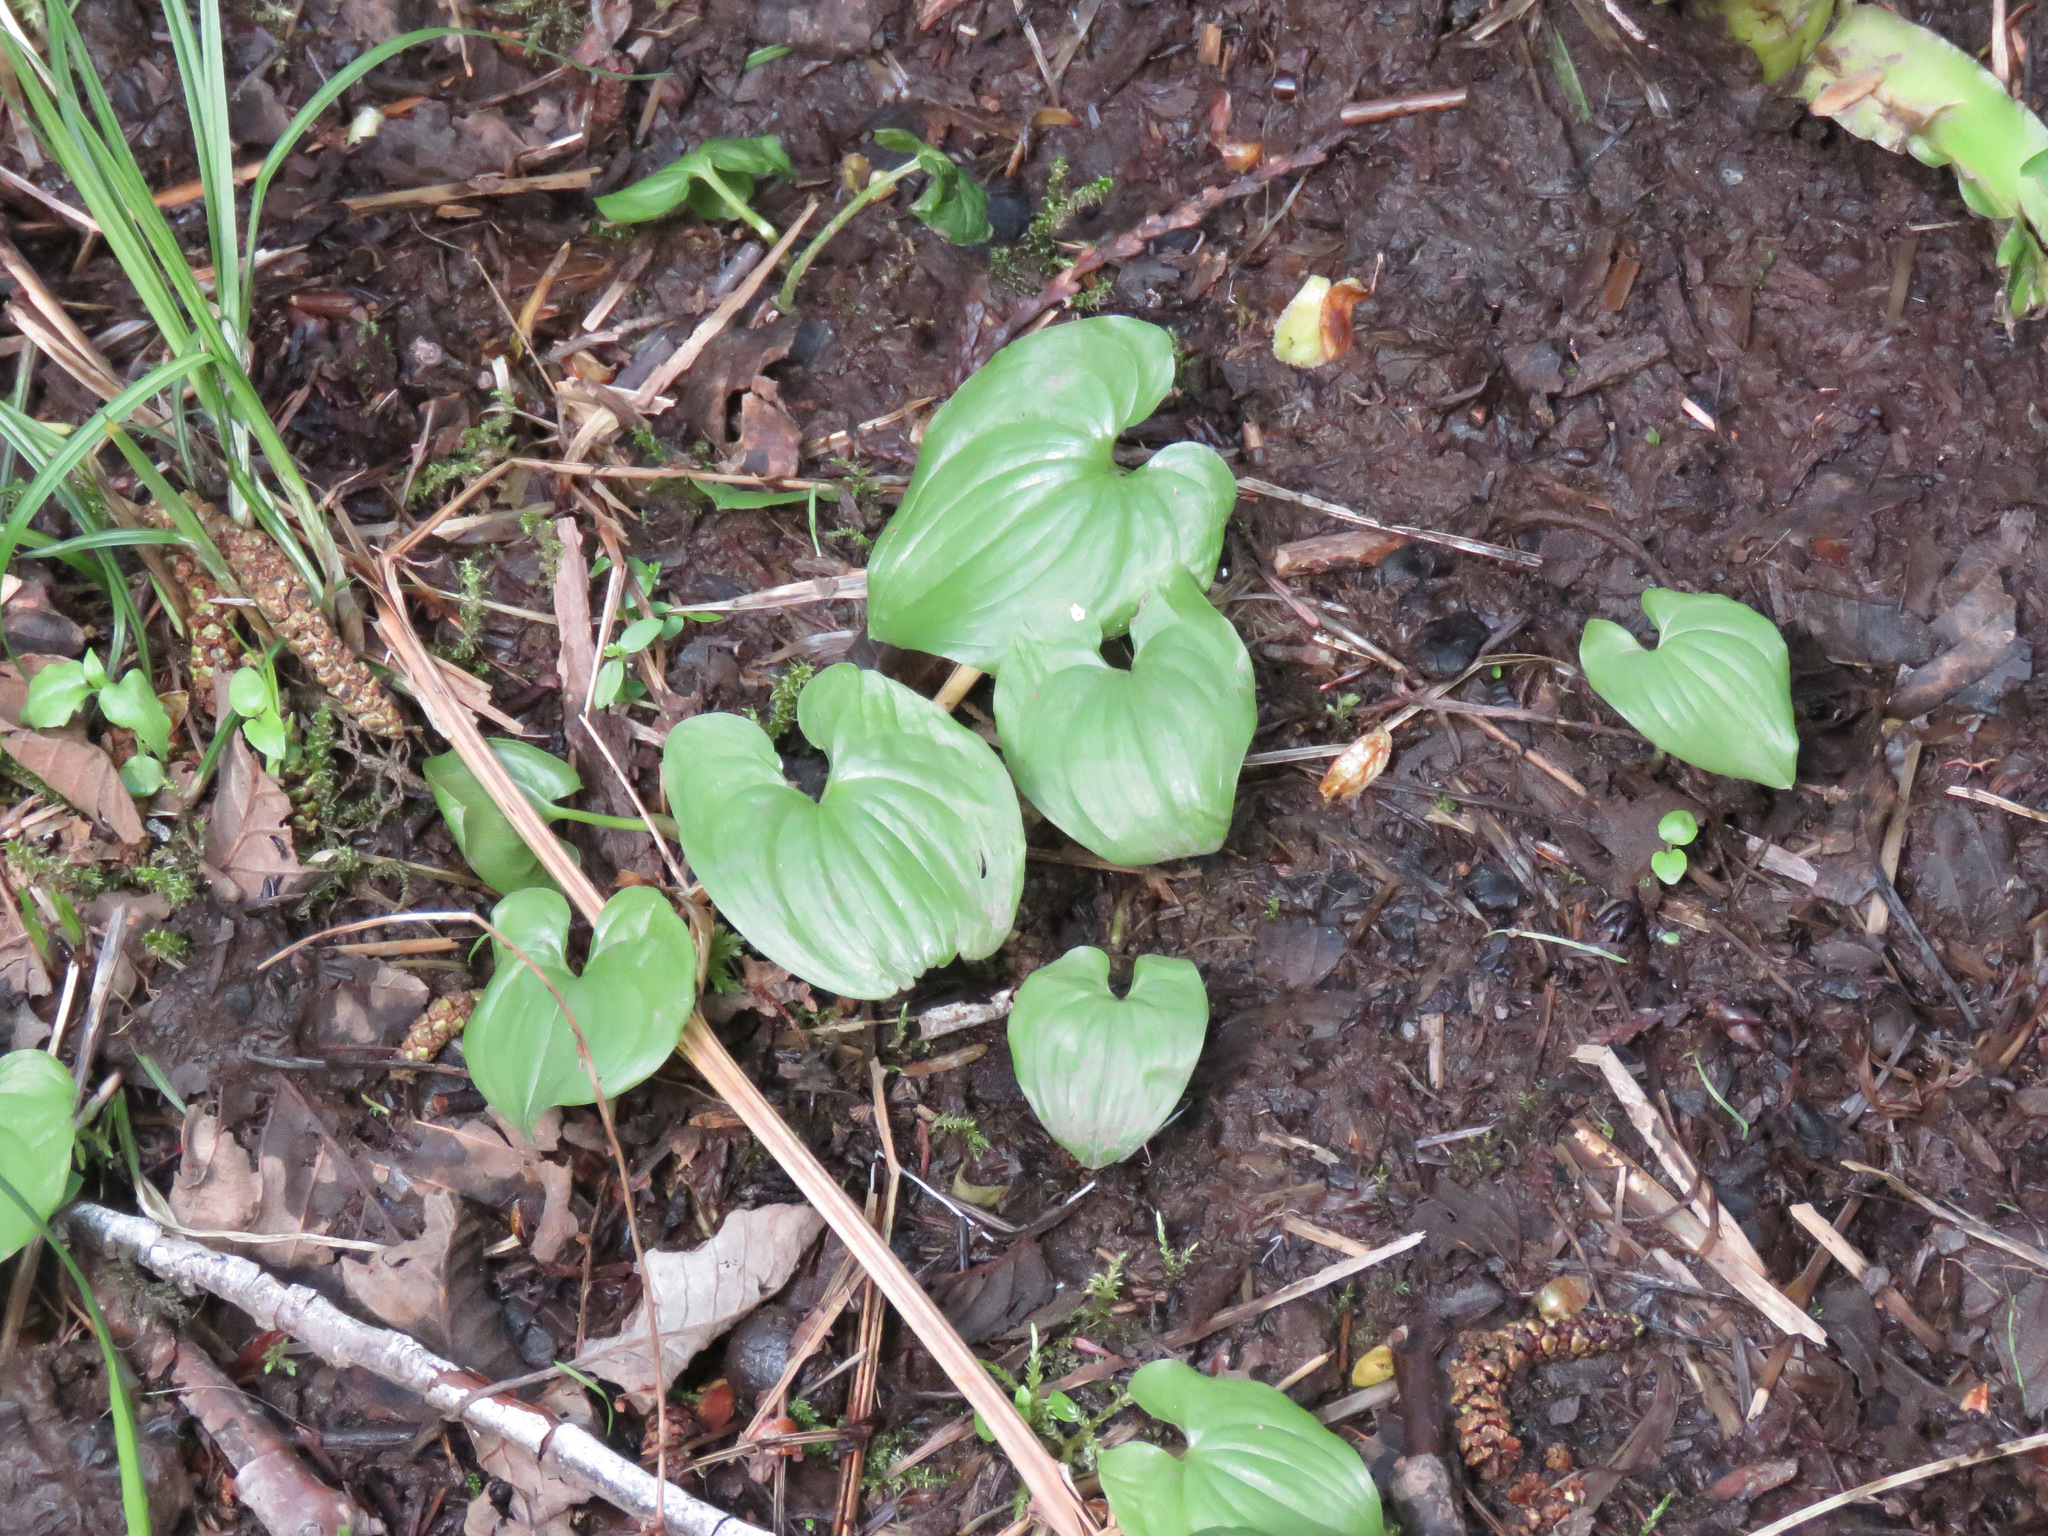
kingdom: Plantae
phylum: Tracheophyta
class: Liliopsida
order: Asparagales
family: Asparagaceae
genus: Maianthemum
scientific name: Maianthemum dilatatum
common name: False lily-of-the-valley
